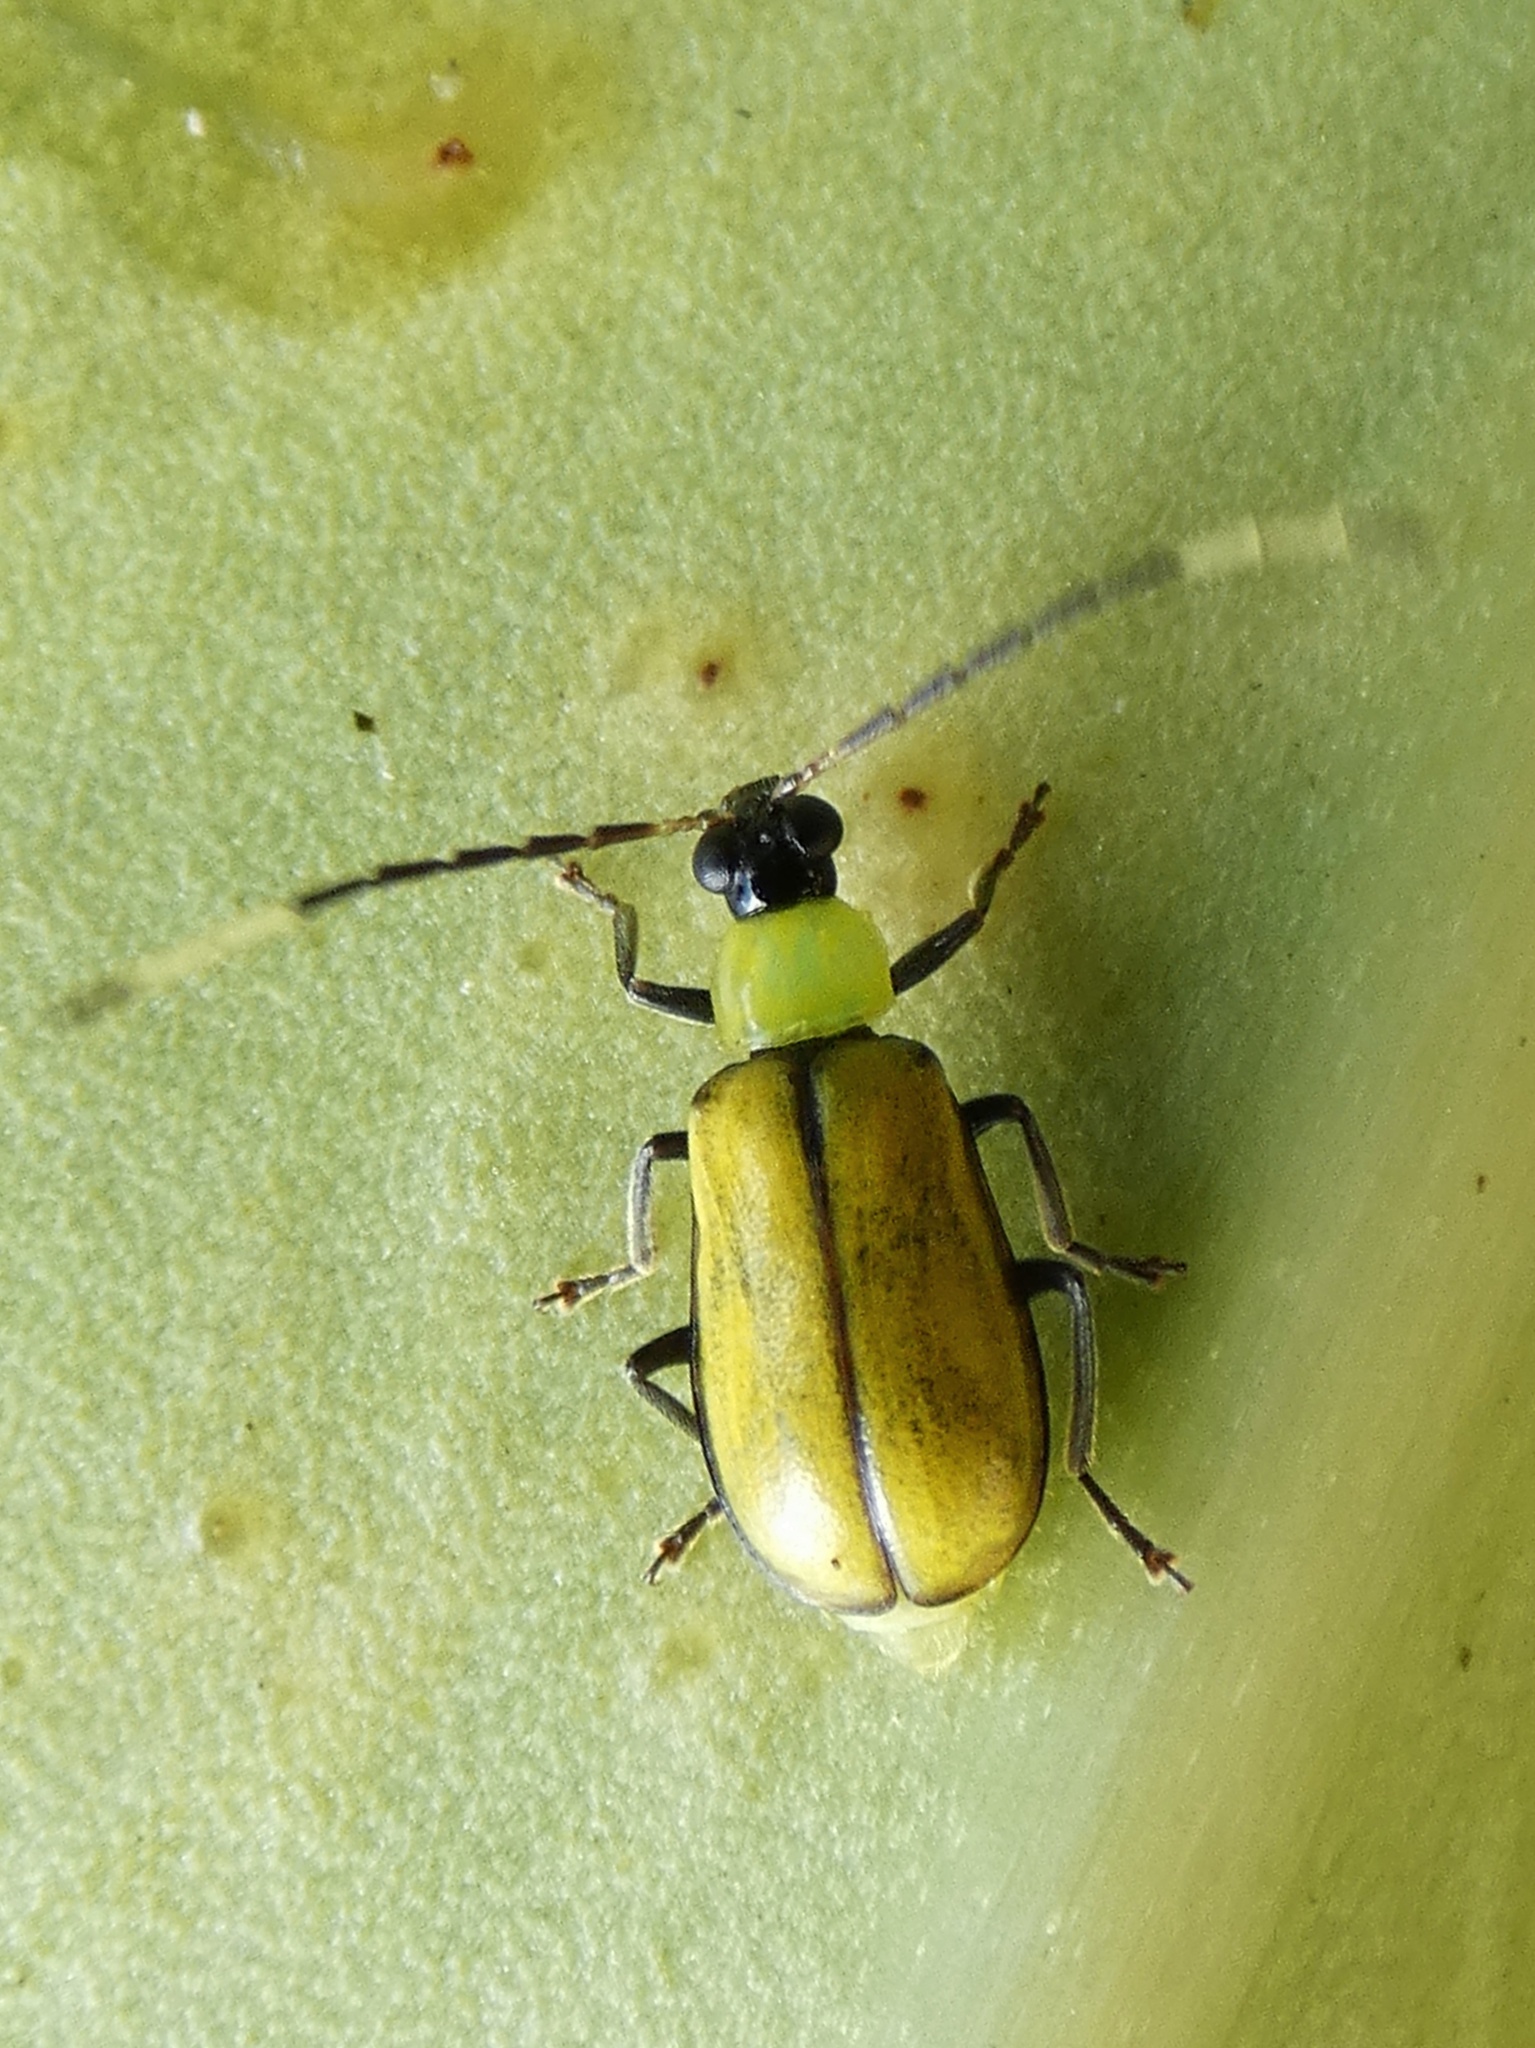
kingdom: Animalia
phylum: Arthropoda
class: Insecta
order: Coleoptera
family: Chrysomelidae
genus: Diabrotica
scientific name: Diabrotica
